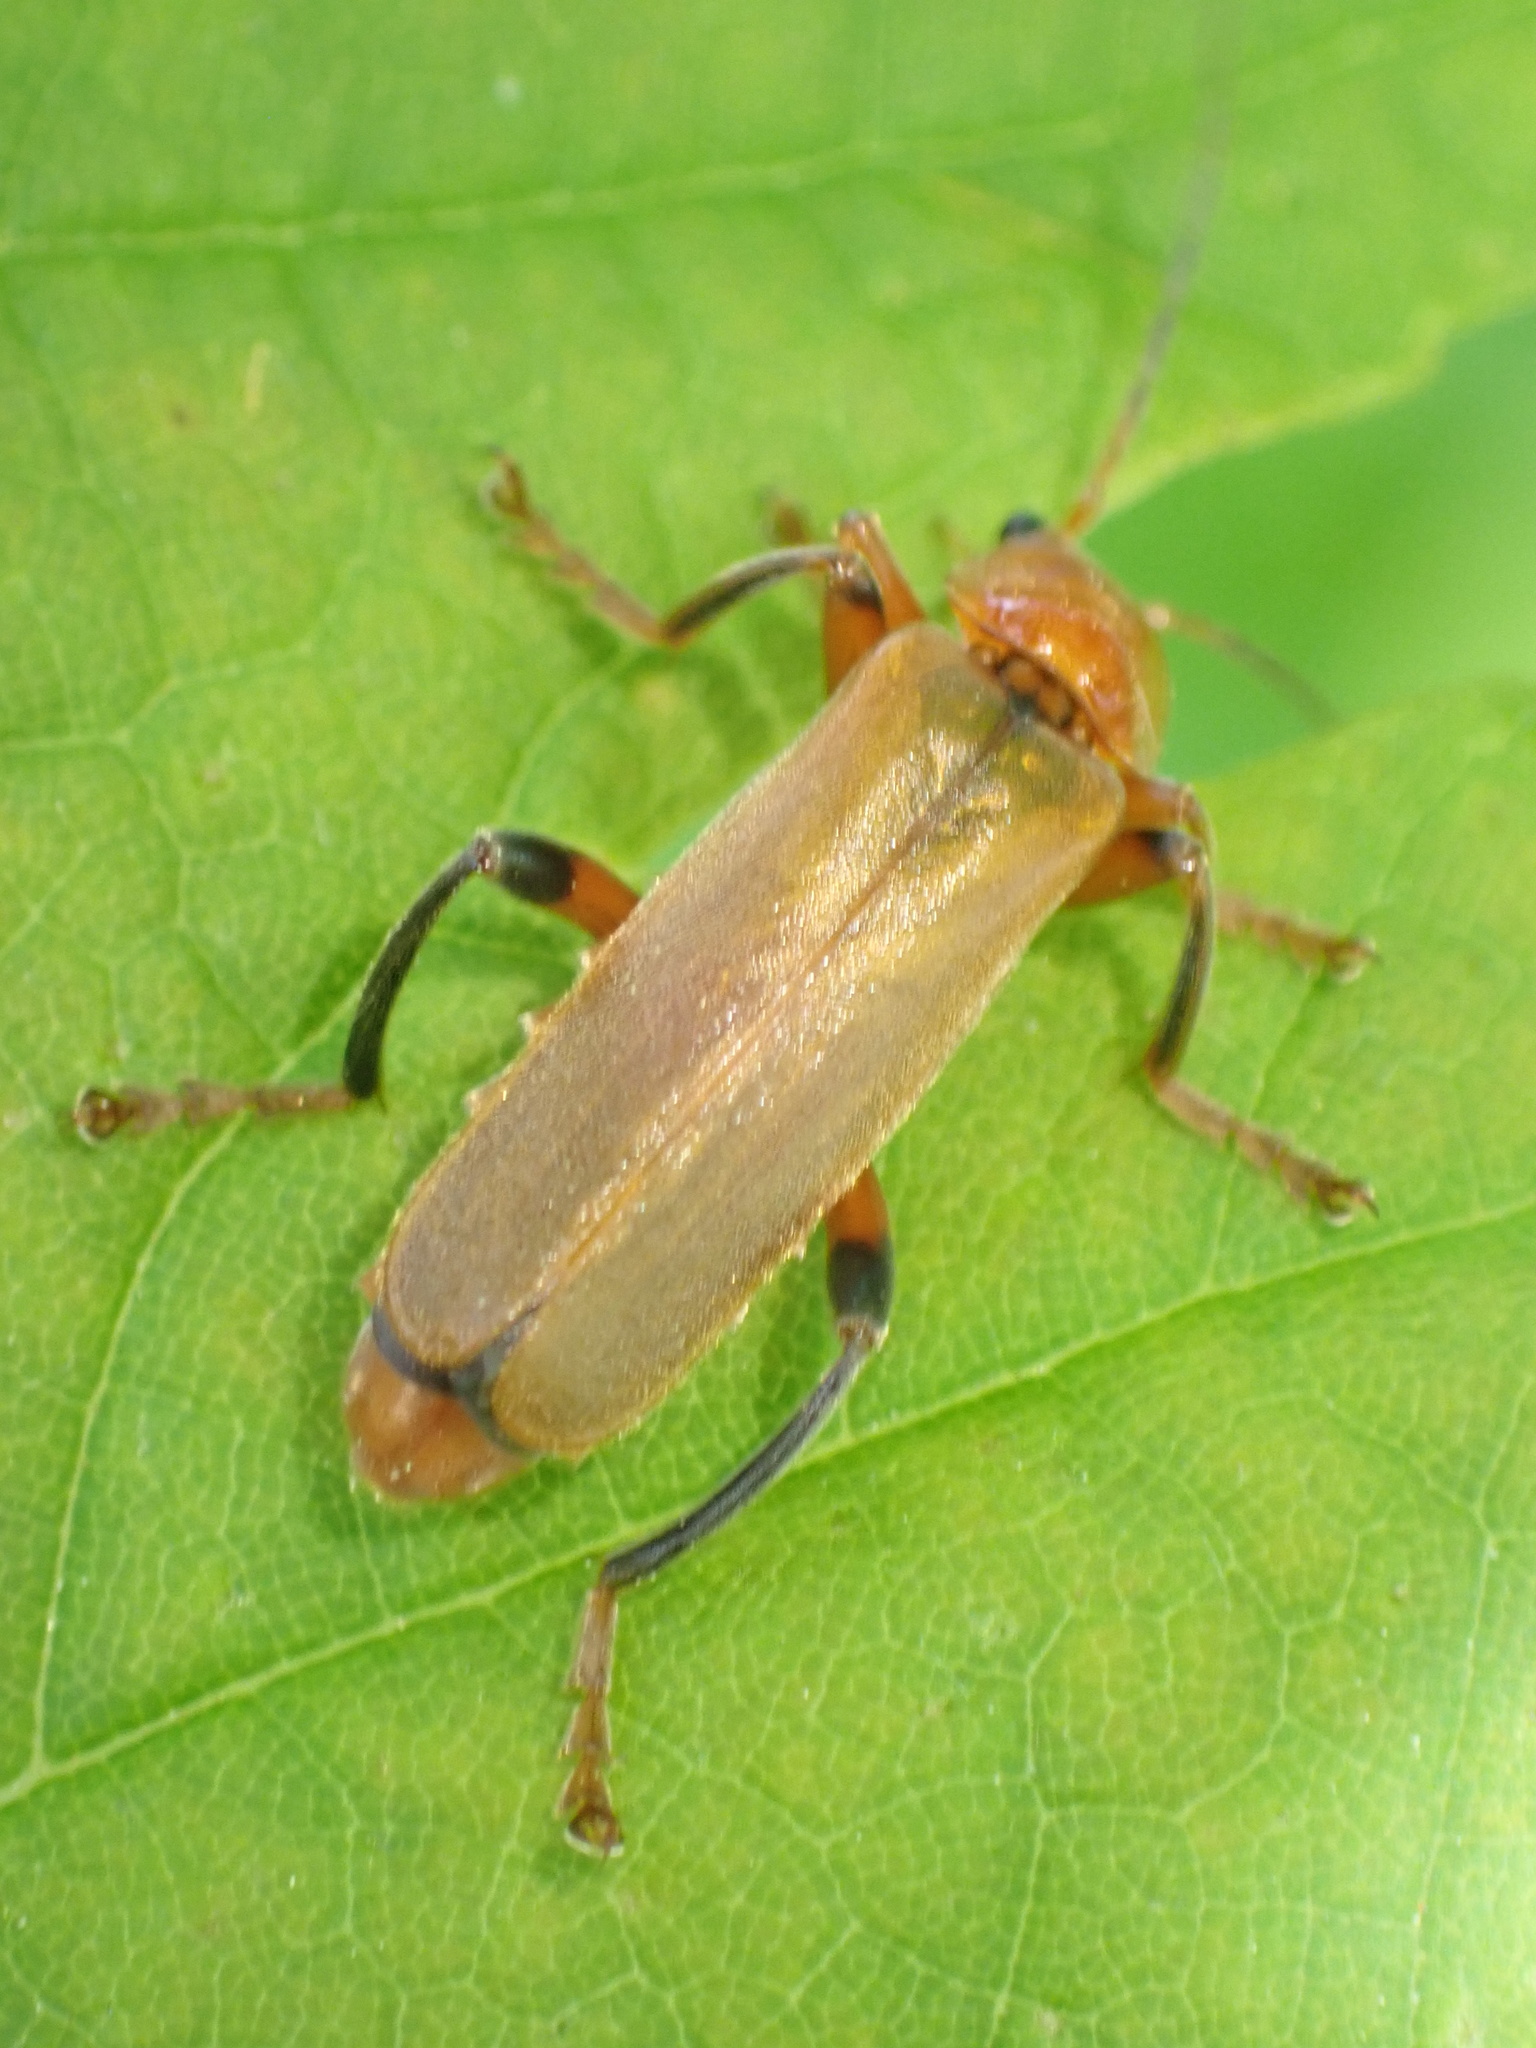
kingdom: Animalia
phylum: Arthropoda
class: Insecta
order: Coleoptera
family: Cantharidae
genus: Cantharis
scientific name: Cantharis livida
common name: Livid soldier beetle
